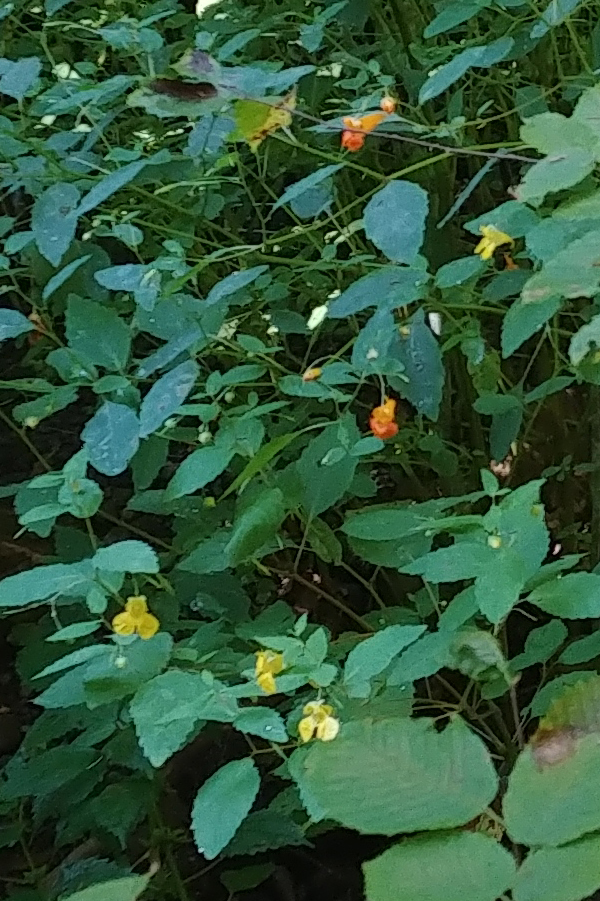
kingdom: Plantae
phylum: Tracheophyta
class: Magnoliopsida
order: Ericales
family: Balsaminaceae
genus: Impatiens
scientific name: Impatiens pallida
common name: Pale snapweed
